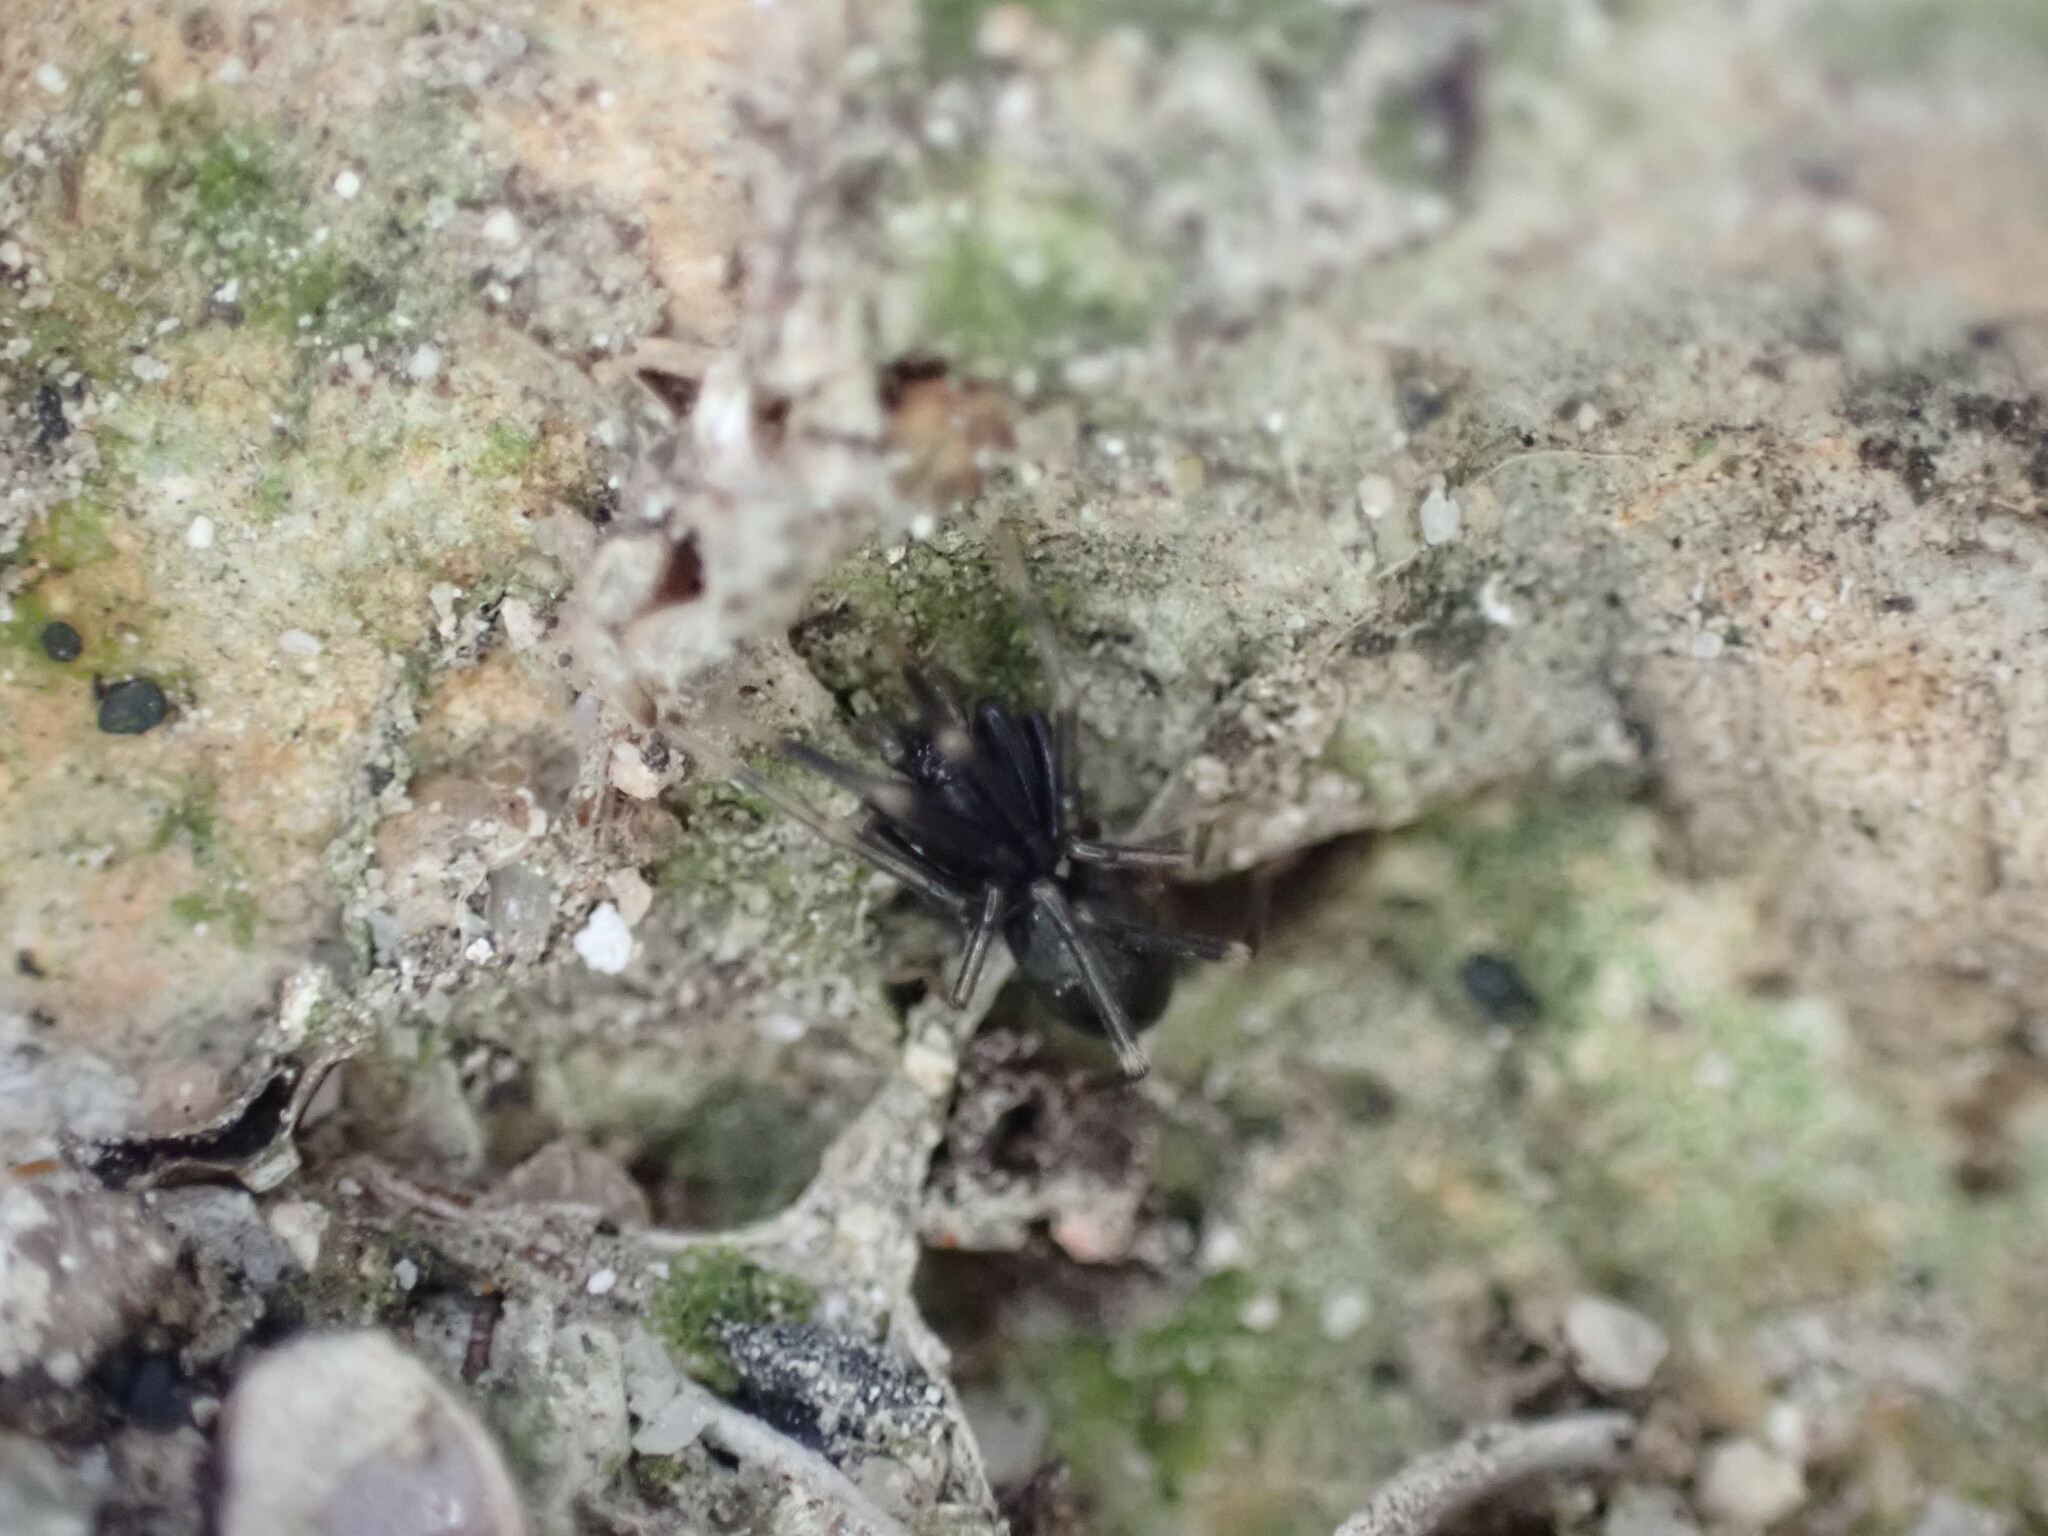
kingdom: Animalia
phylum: Arthropoda
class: Arachnida
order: Araneae
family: Phrurolithidae
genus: Liophrurillus
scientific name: Liophrurillus flavitarsis
